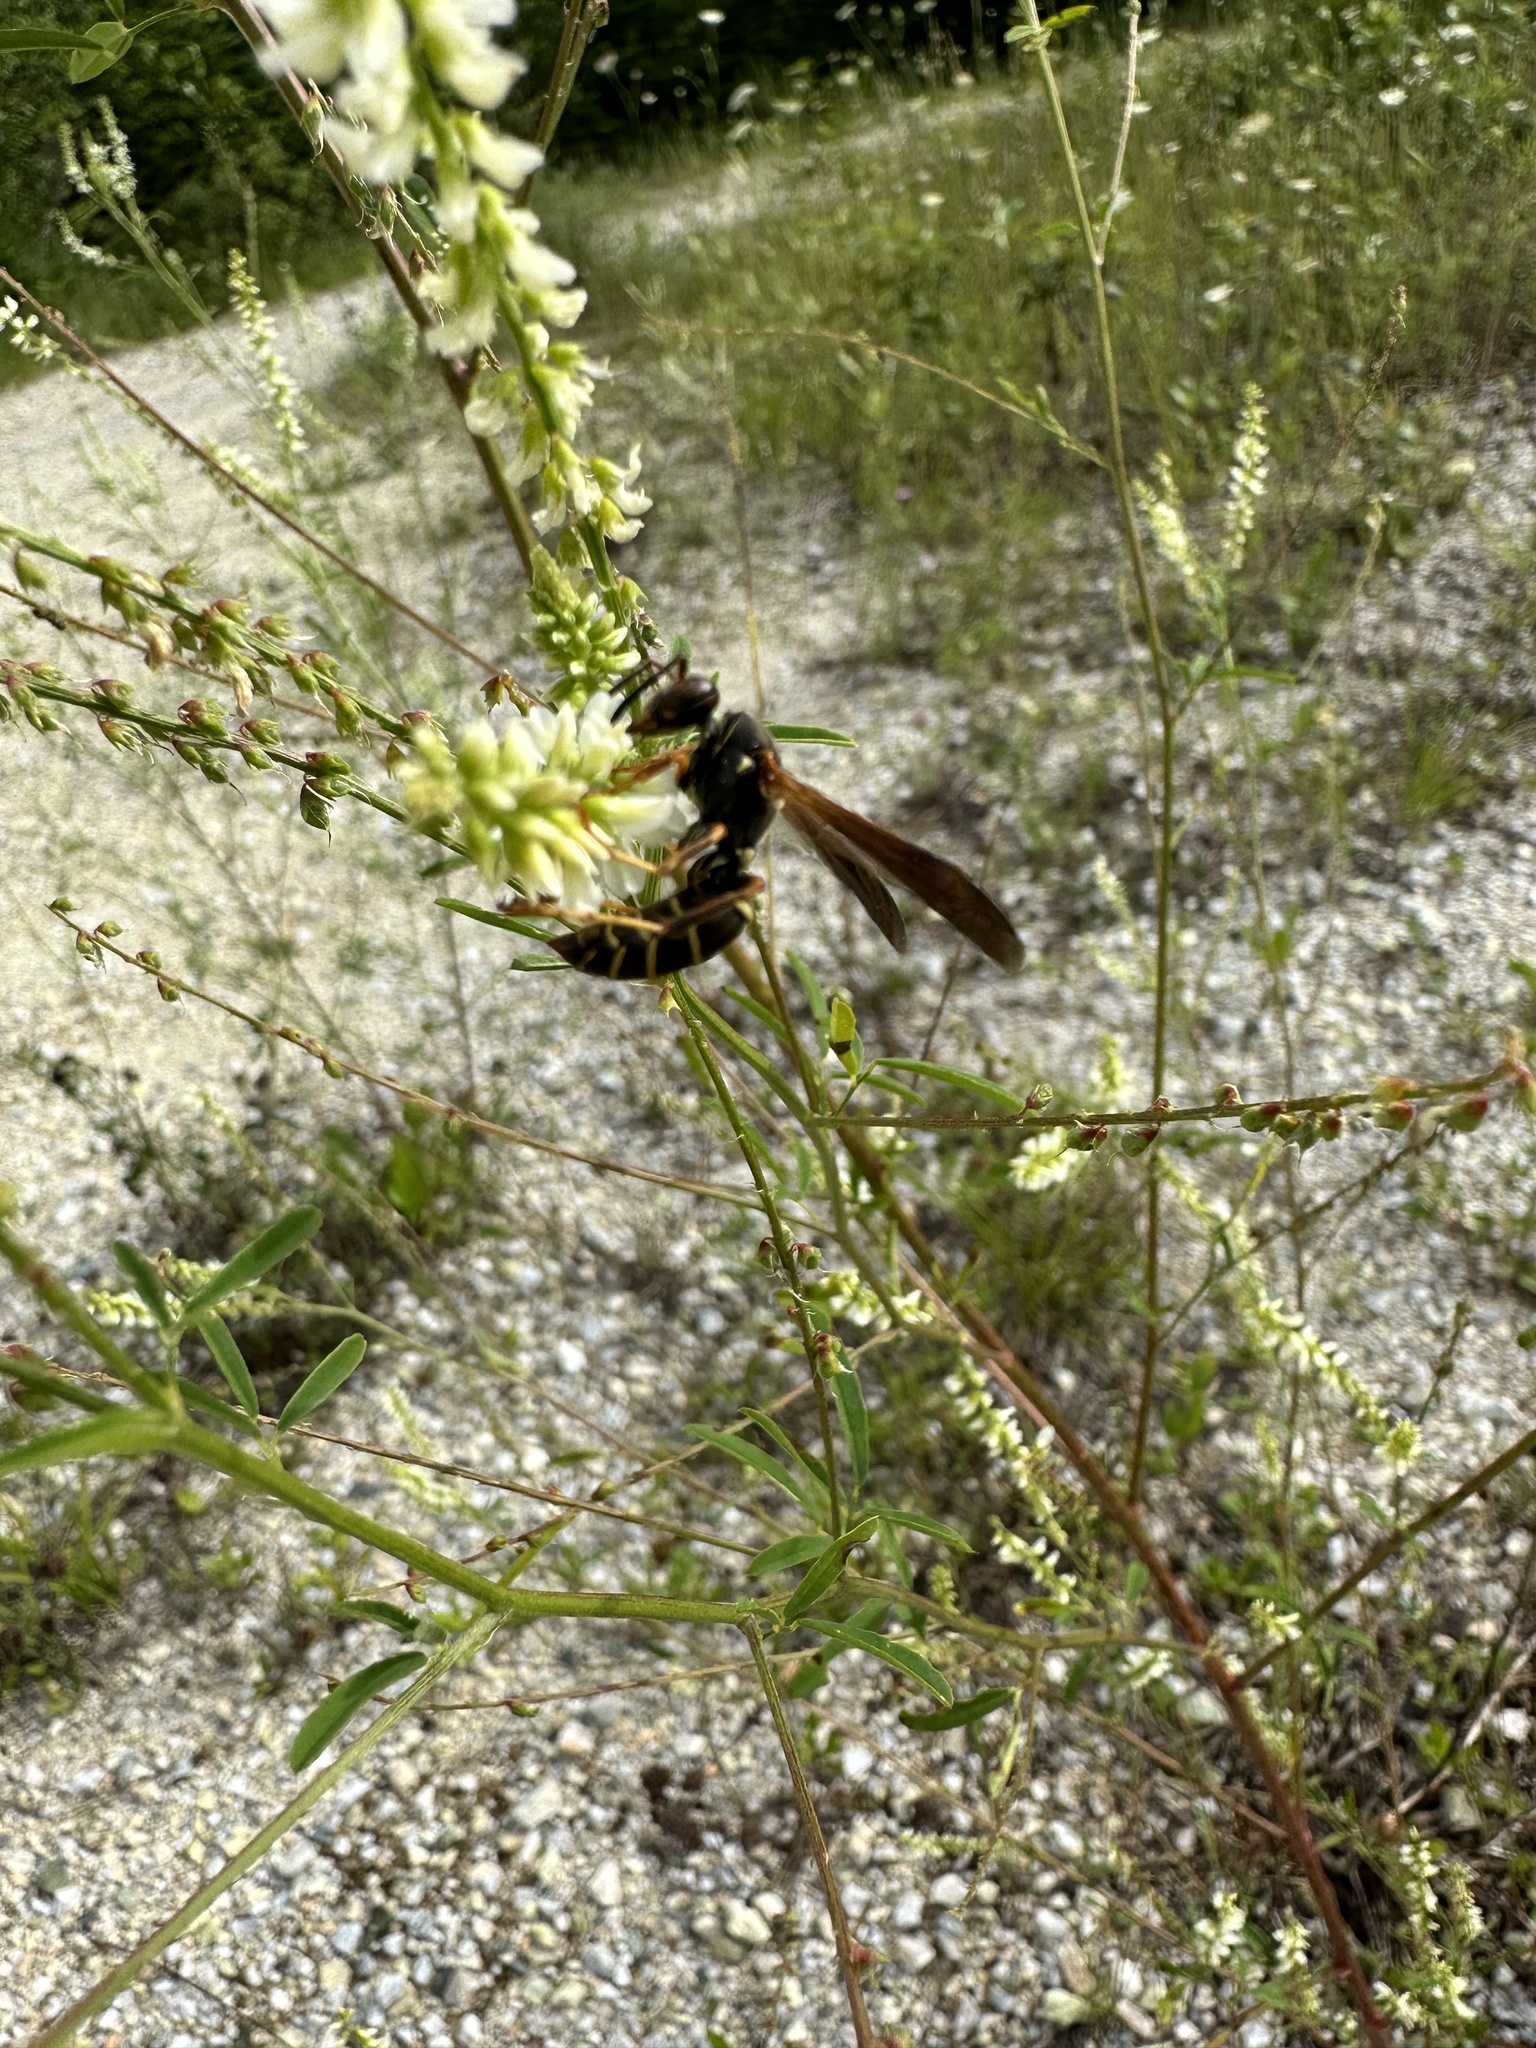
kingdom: Animalia
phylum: Arthropoda
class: Insecta
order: Hymenoptera
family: Eumenidae
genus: Polistes
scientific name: Polistes fuscatus
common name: Dark paper wasp
